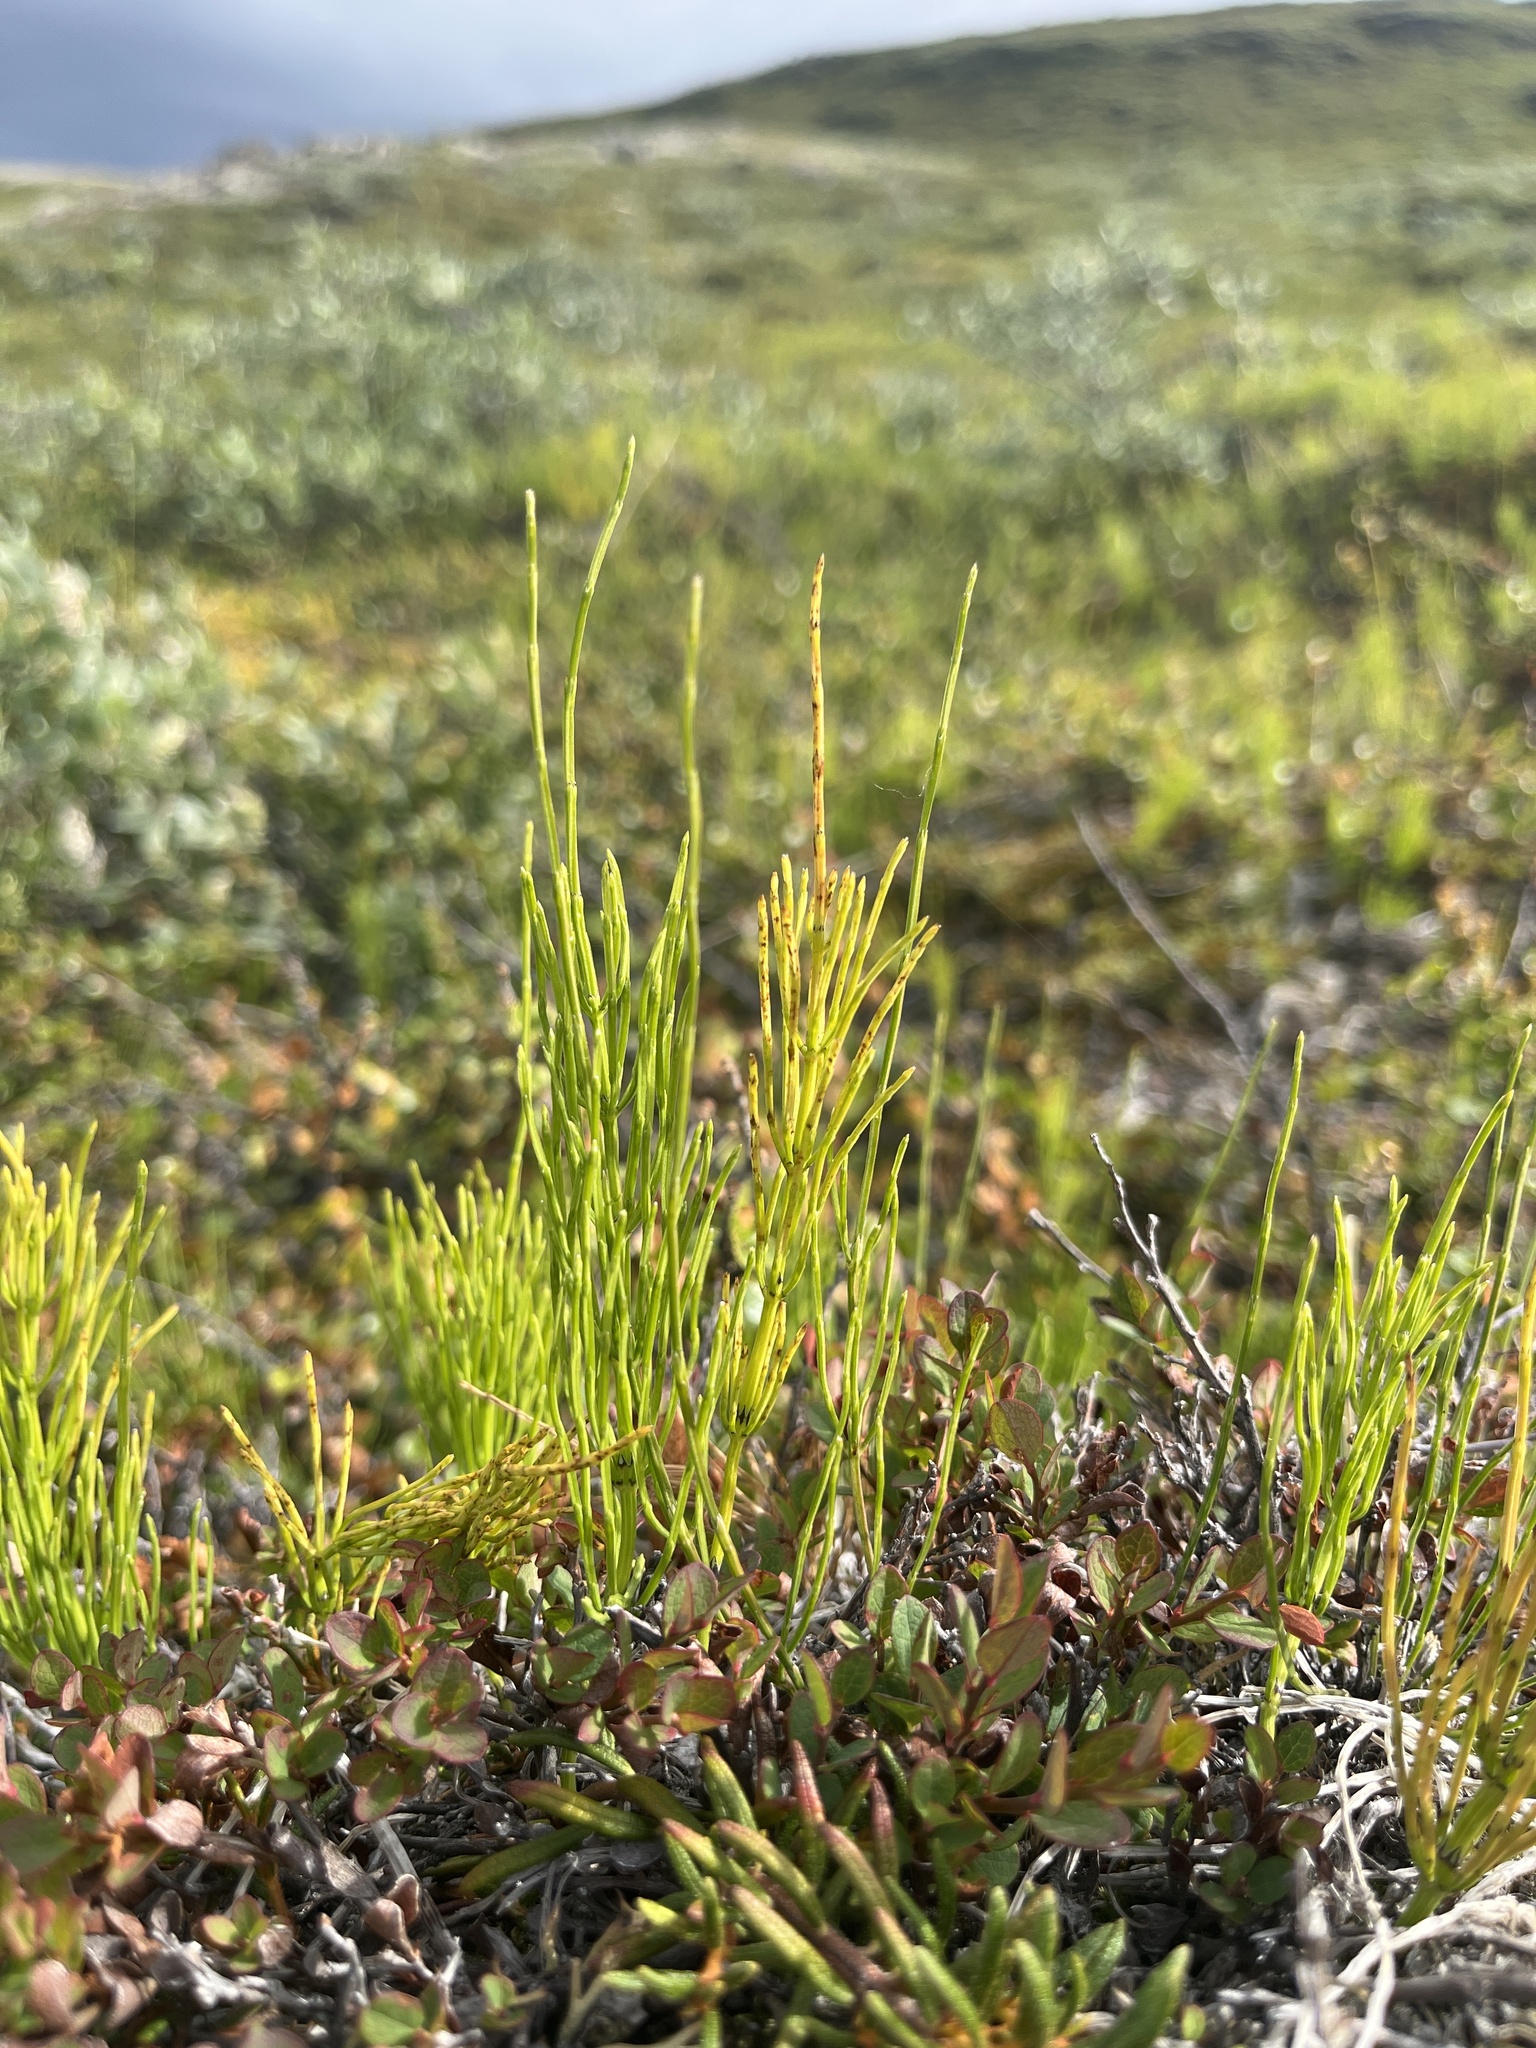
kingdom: Plantae
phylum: Tracheophyta
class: Polypodiopsida
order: Equisetales
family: Equisetaceae
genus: Equisetum
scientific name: Equisetum arvense
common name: Field horsetail
